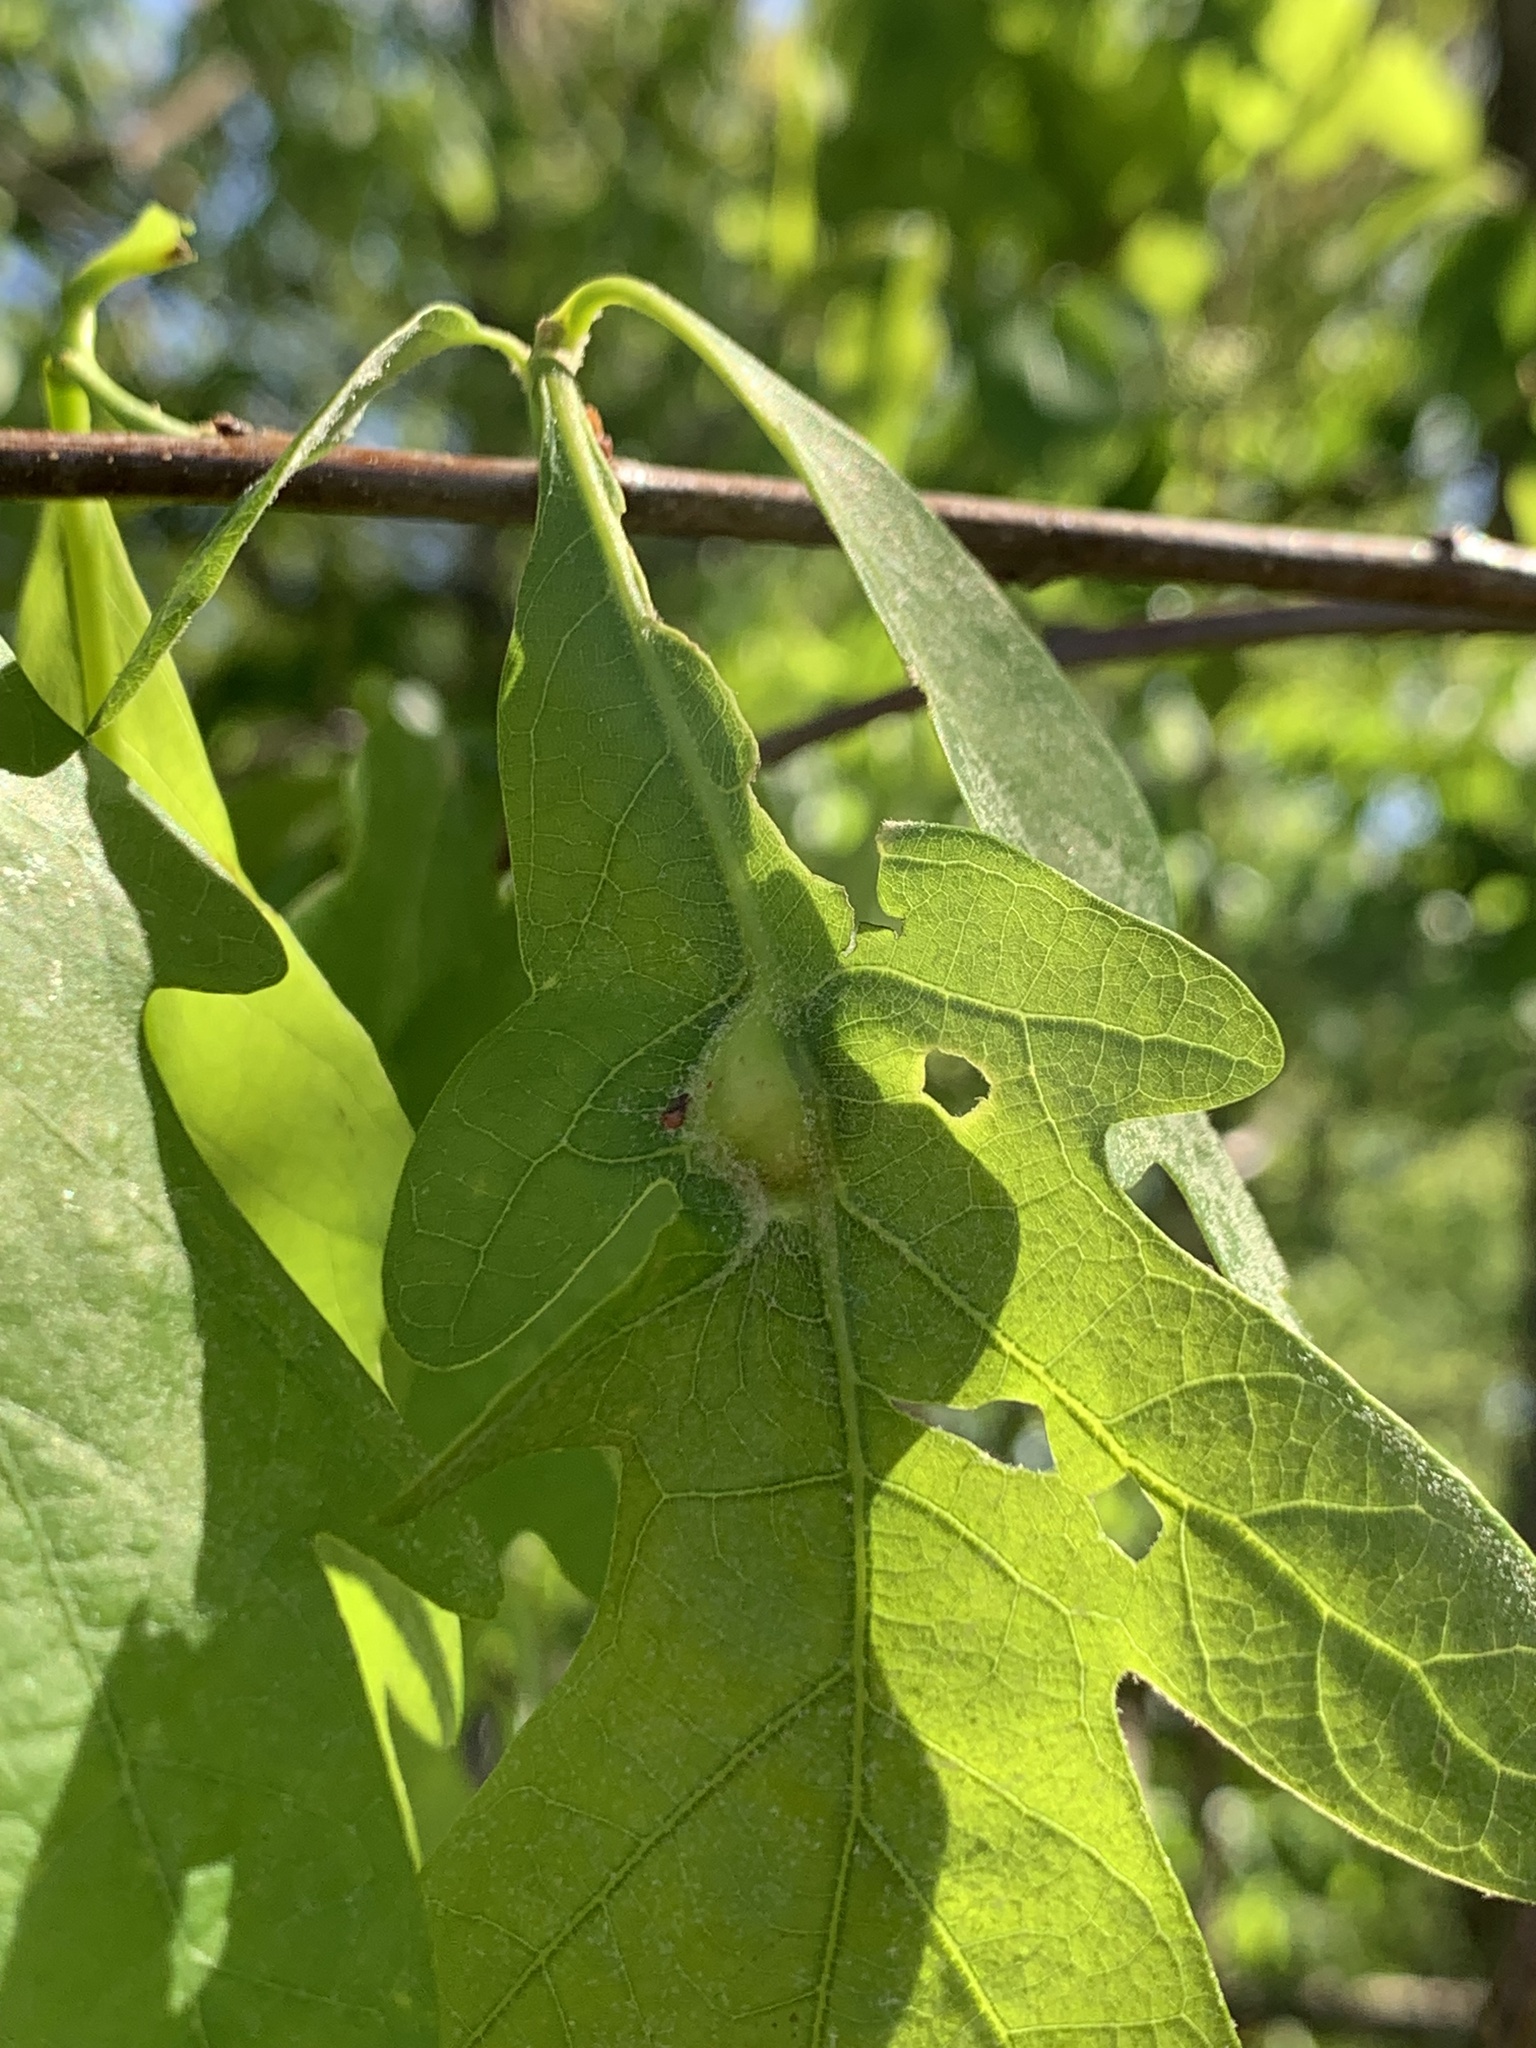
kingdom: Animalia
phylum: Arthropoda
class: Insecta
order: Hymenoptera
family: Cynipidae
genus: Andricus
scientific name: Andricus
